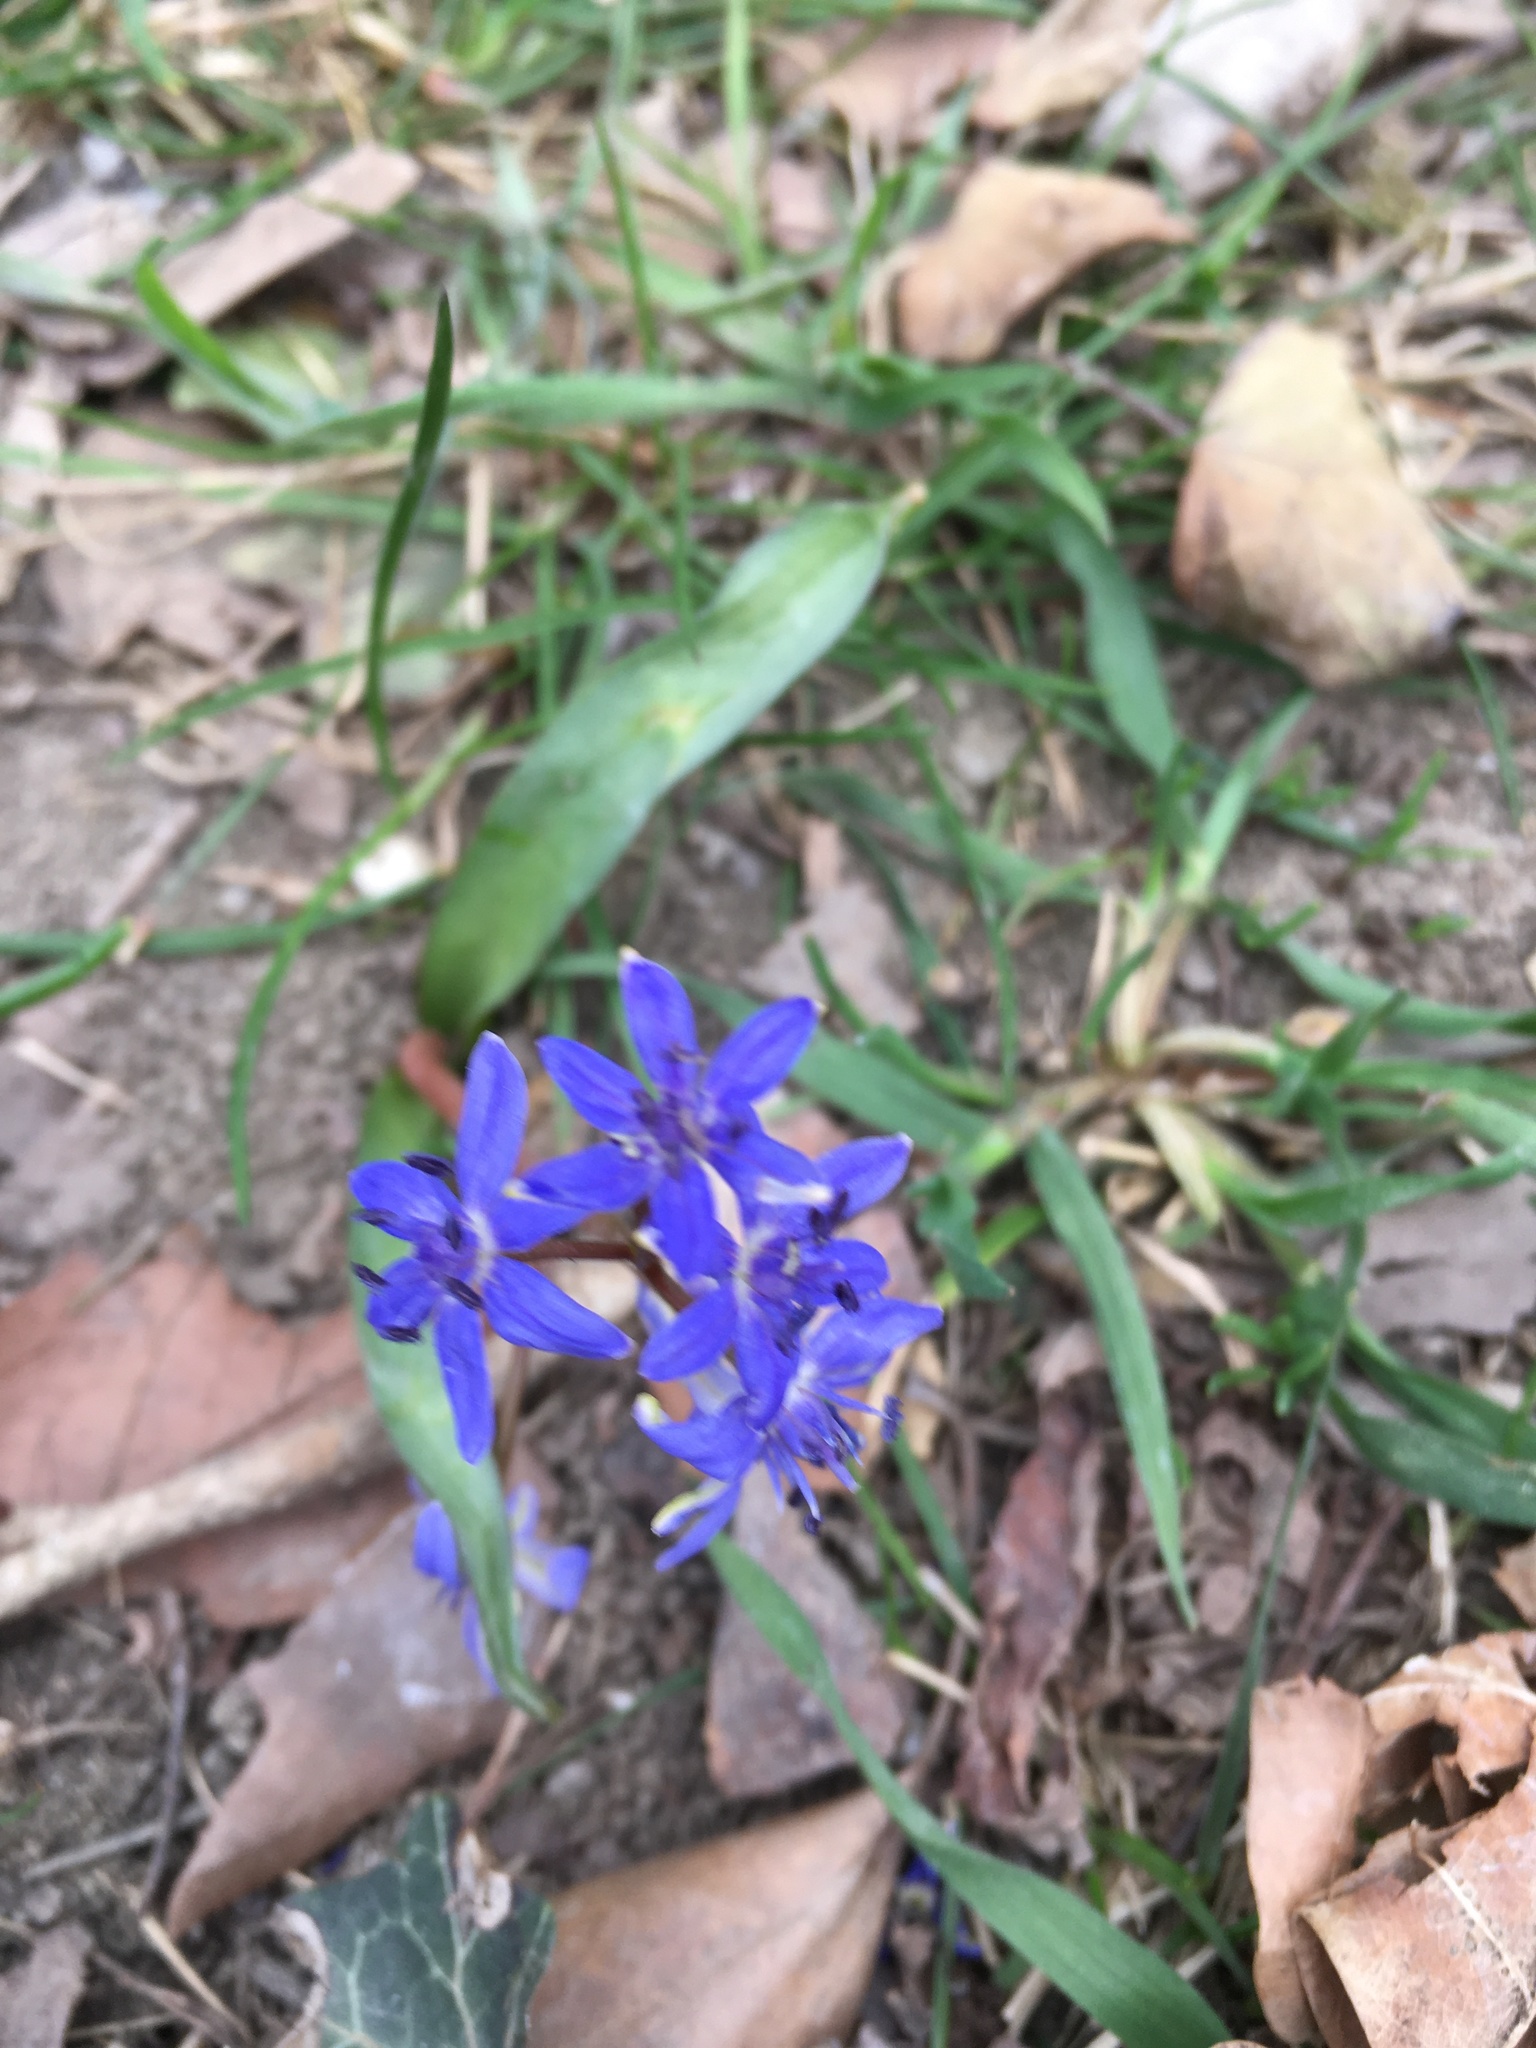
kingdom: Plantae
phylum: Tracheophyta
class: Liliopsida
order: Asparagales
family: Asparagaceae
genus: Scilla
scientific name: Scilla vindobonensis
